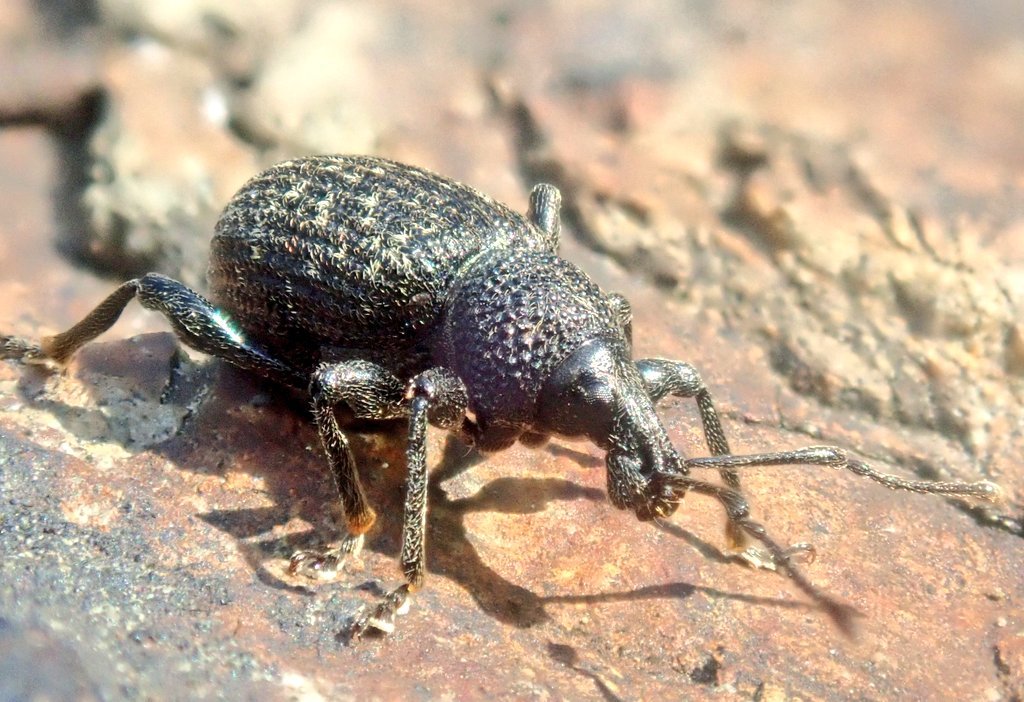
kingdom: Animalia
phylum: Arthropoda
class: Insecta
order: Coleoptera
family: Curculionidae
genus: Otiorhynchus
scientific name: Otiorhynchus sulcatus
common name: Black vine weevil
